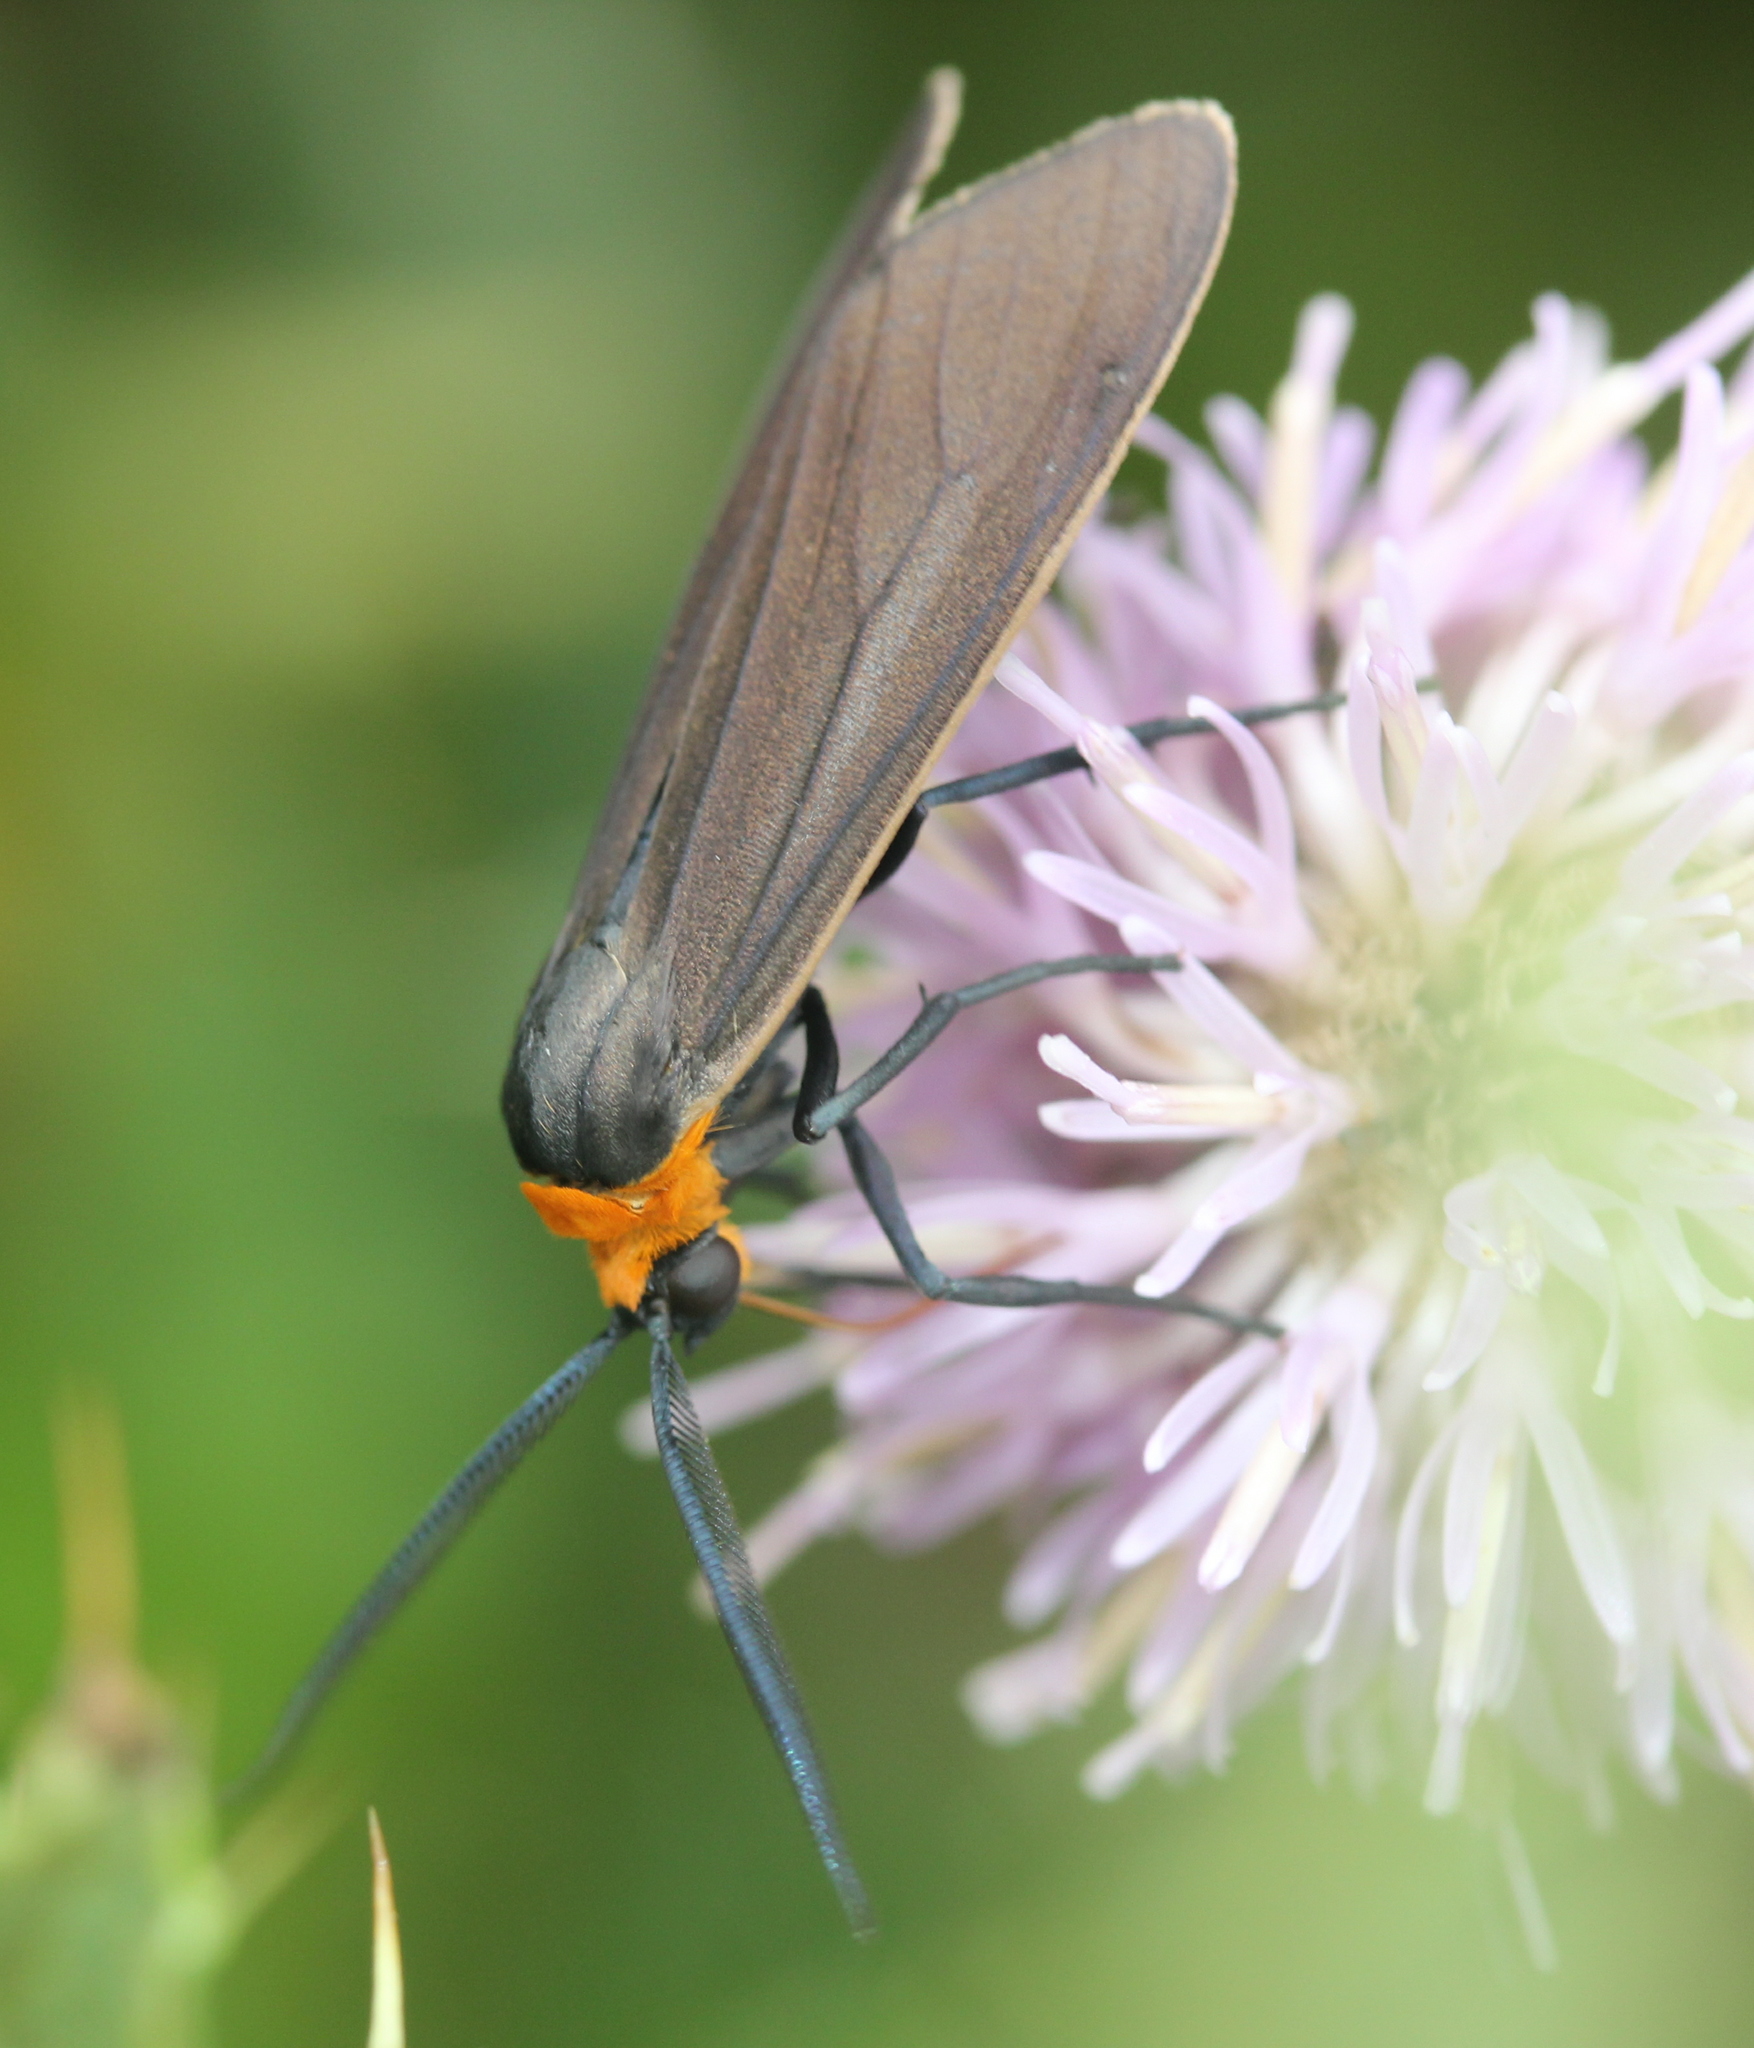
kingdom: Animalia
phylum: Arthropoda
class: Insecta
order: Lepidoptera
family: Erebidae
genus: Cisseps
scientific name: Cisseps fulvicollis
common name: Yellow-collared scape moth
